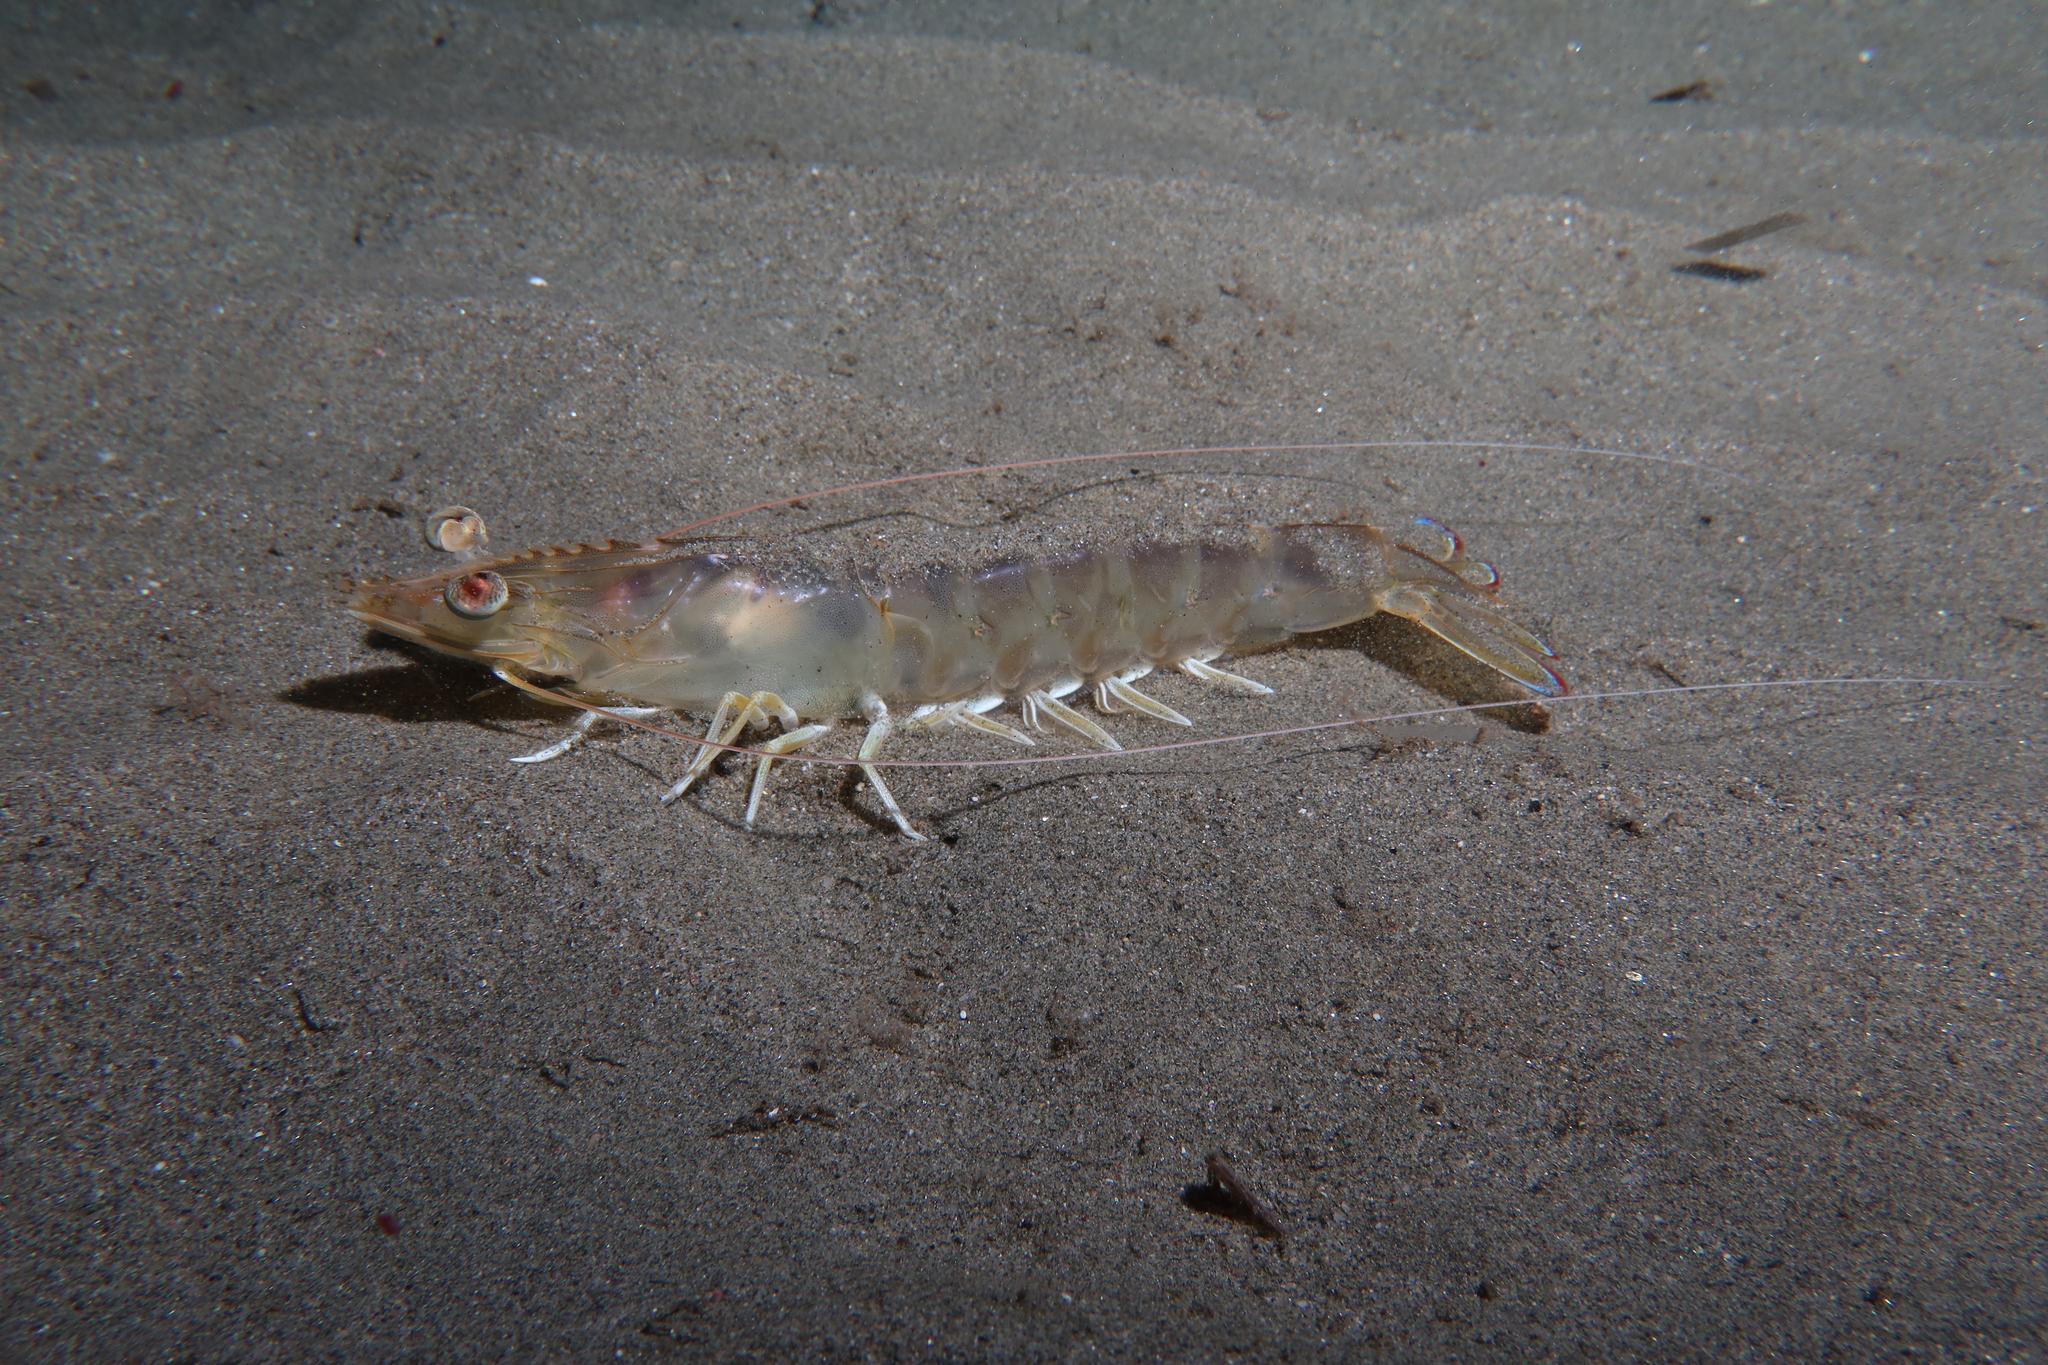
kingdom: Animalia
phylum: Arthropoda
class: Malacostraca
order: Decapoda
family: Penaeidae
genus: Penaeus
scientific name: Penaeus kerathurus
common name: Caramote prawn
